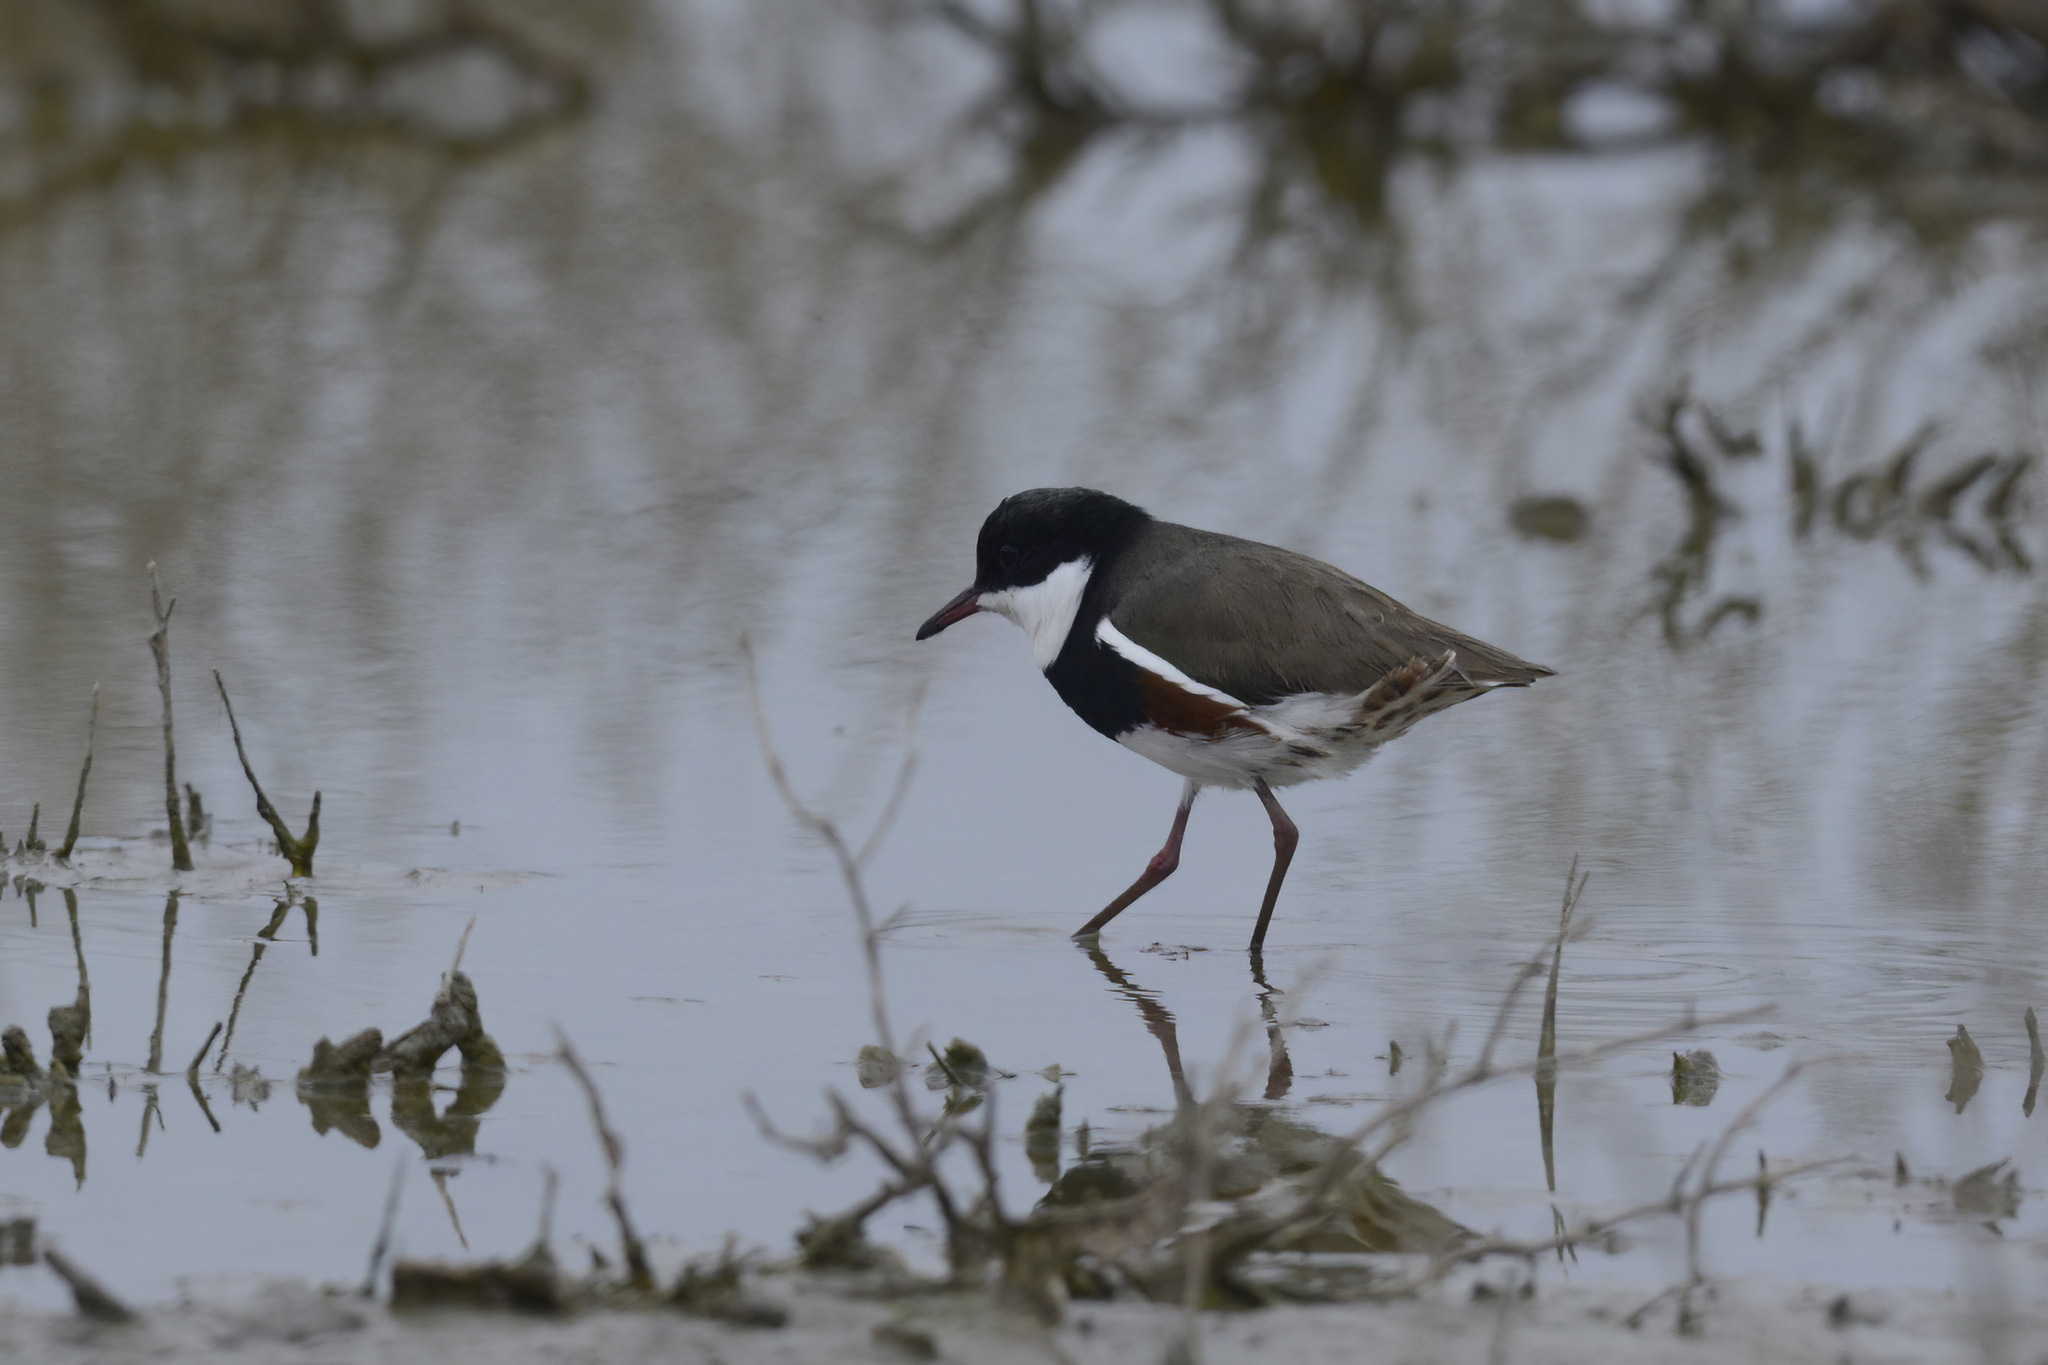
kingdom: Animalia
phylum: Chordata
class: Aves
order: Charadriiformes
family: Charadriidae
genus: Erythrogonys
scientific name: Erythrogonys cinctus
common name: Red-kneed dotterel
